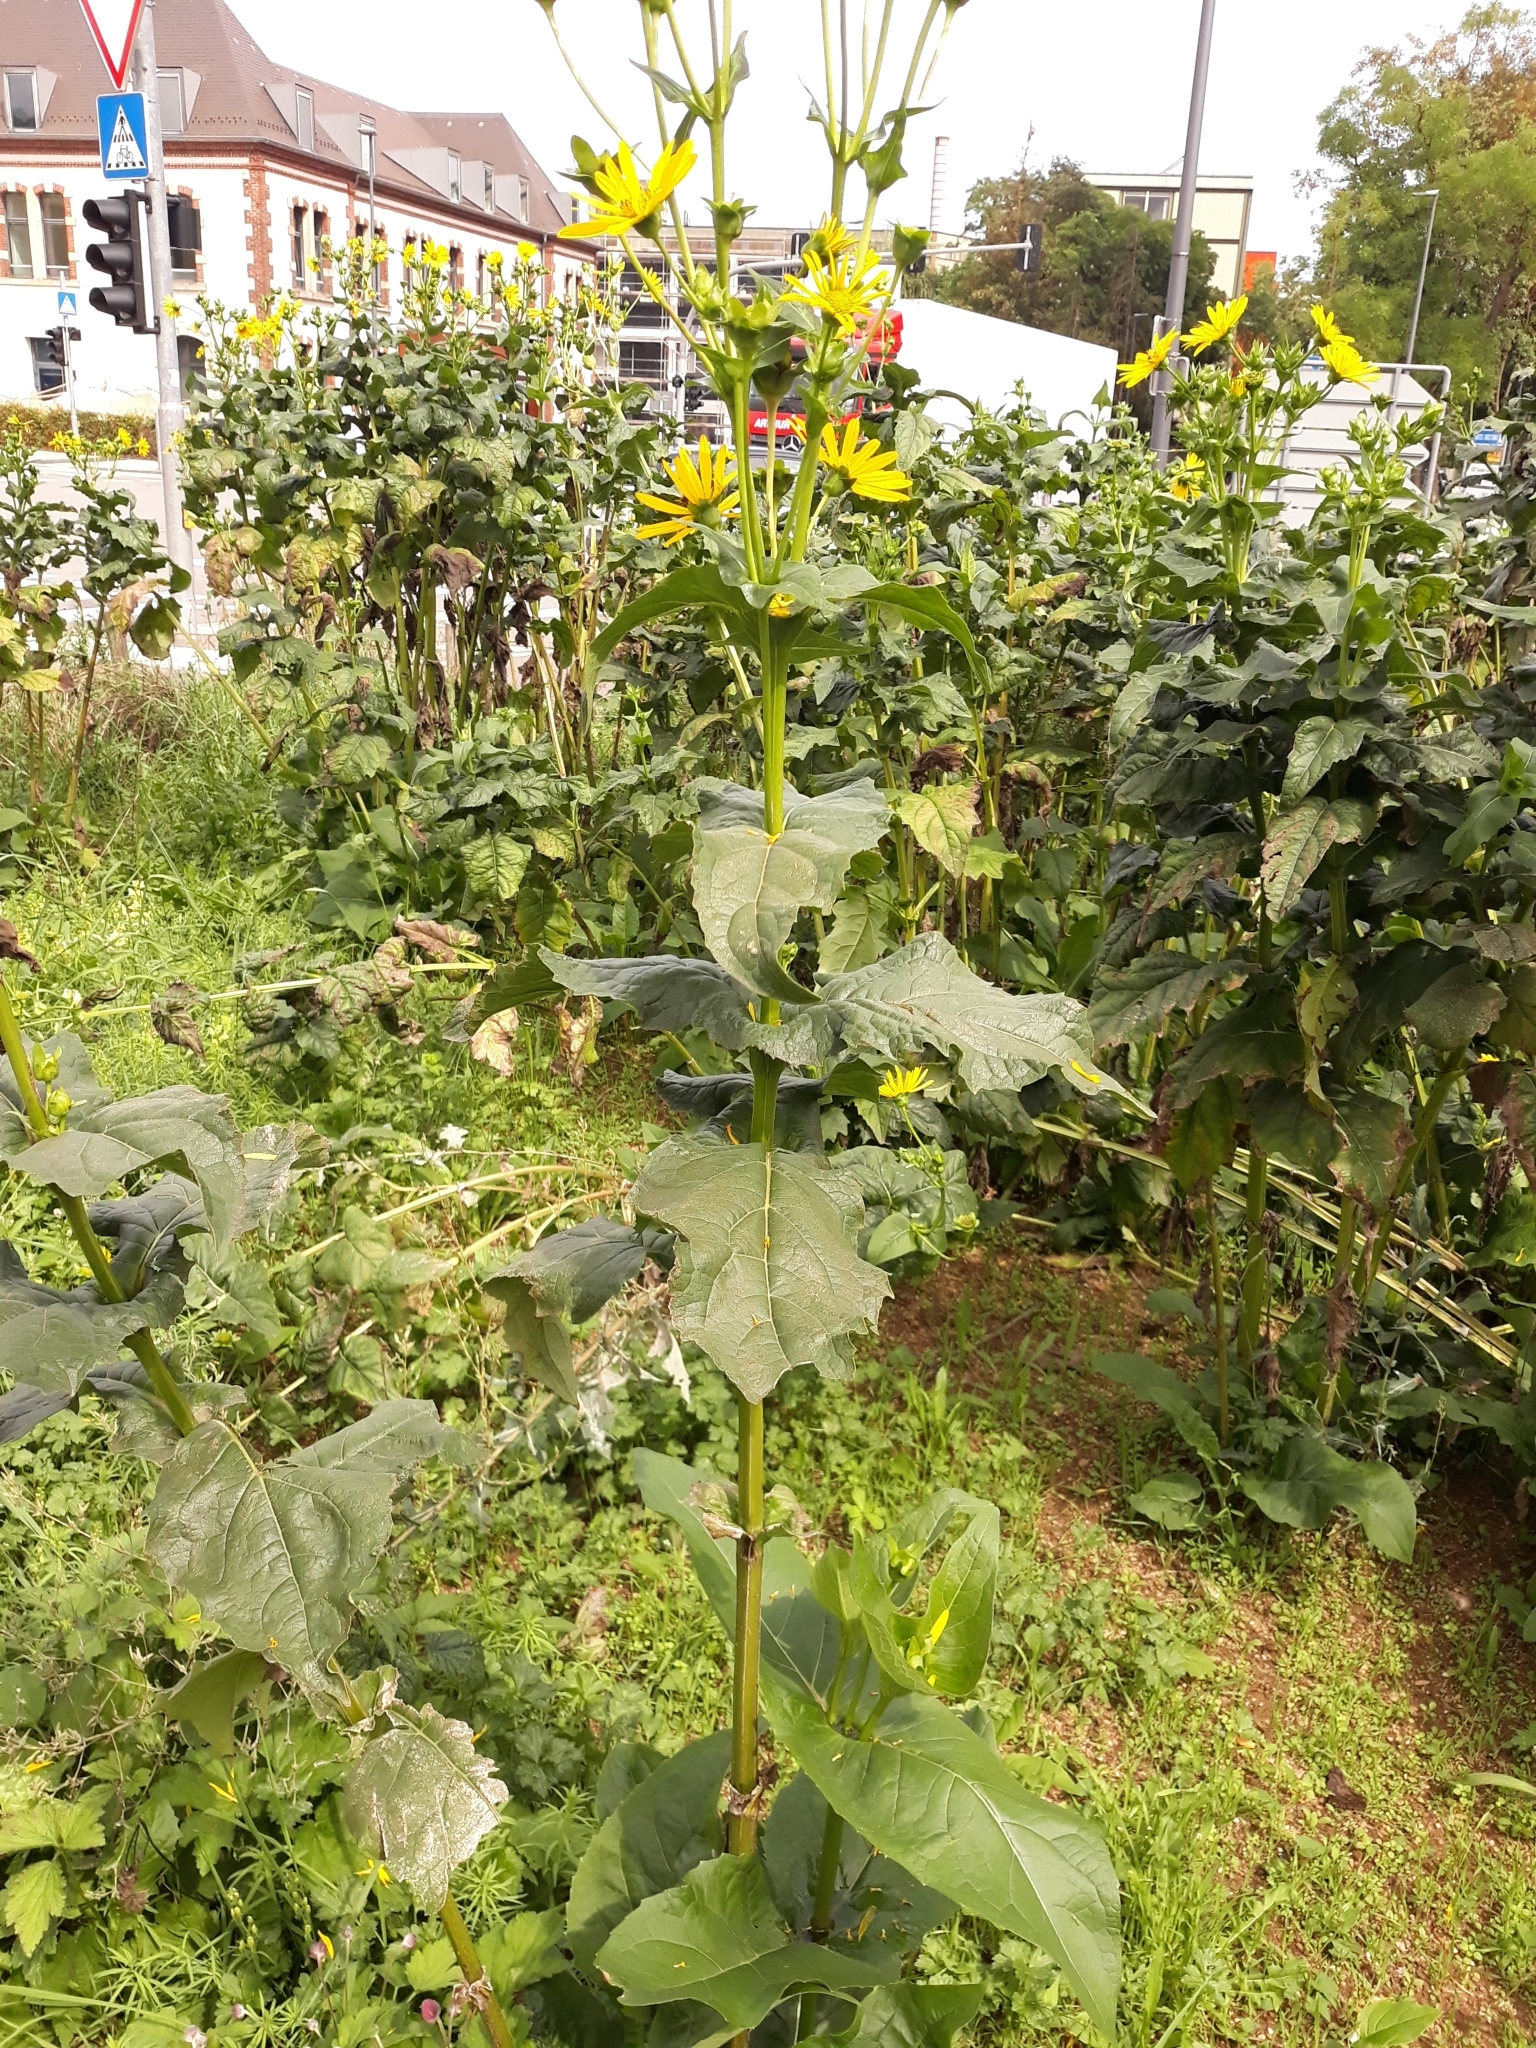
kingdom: Plantae
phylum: Tracheophyta
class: Magnoliopsida
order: Asterales
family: Asteraceae
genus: Silphium
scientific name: Silphium perfoliatum
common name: Cup-plant
